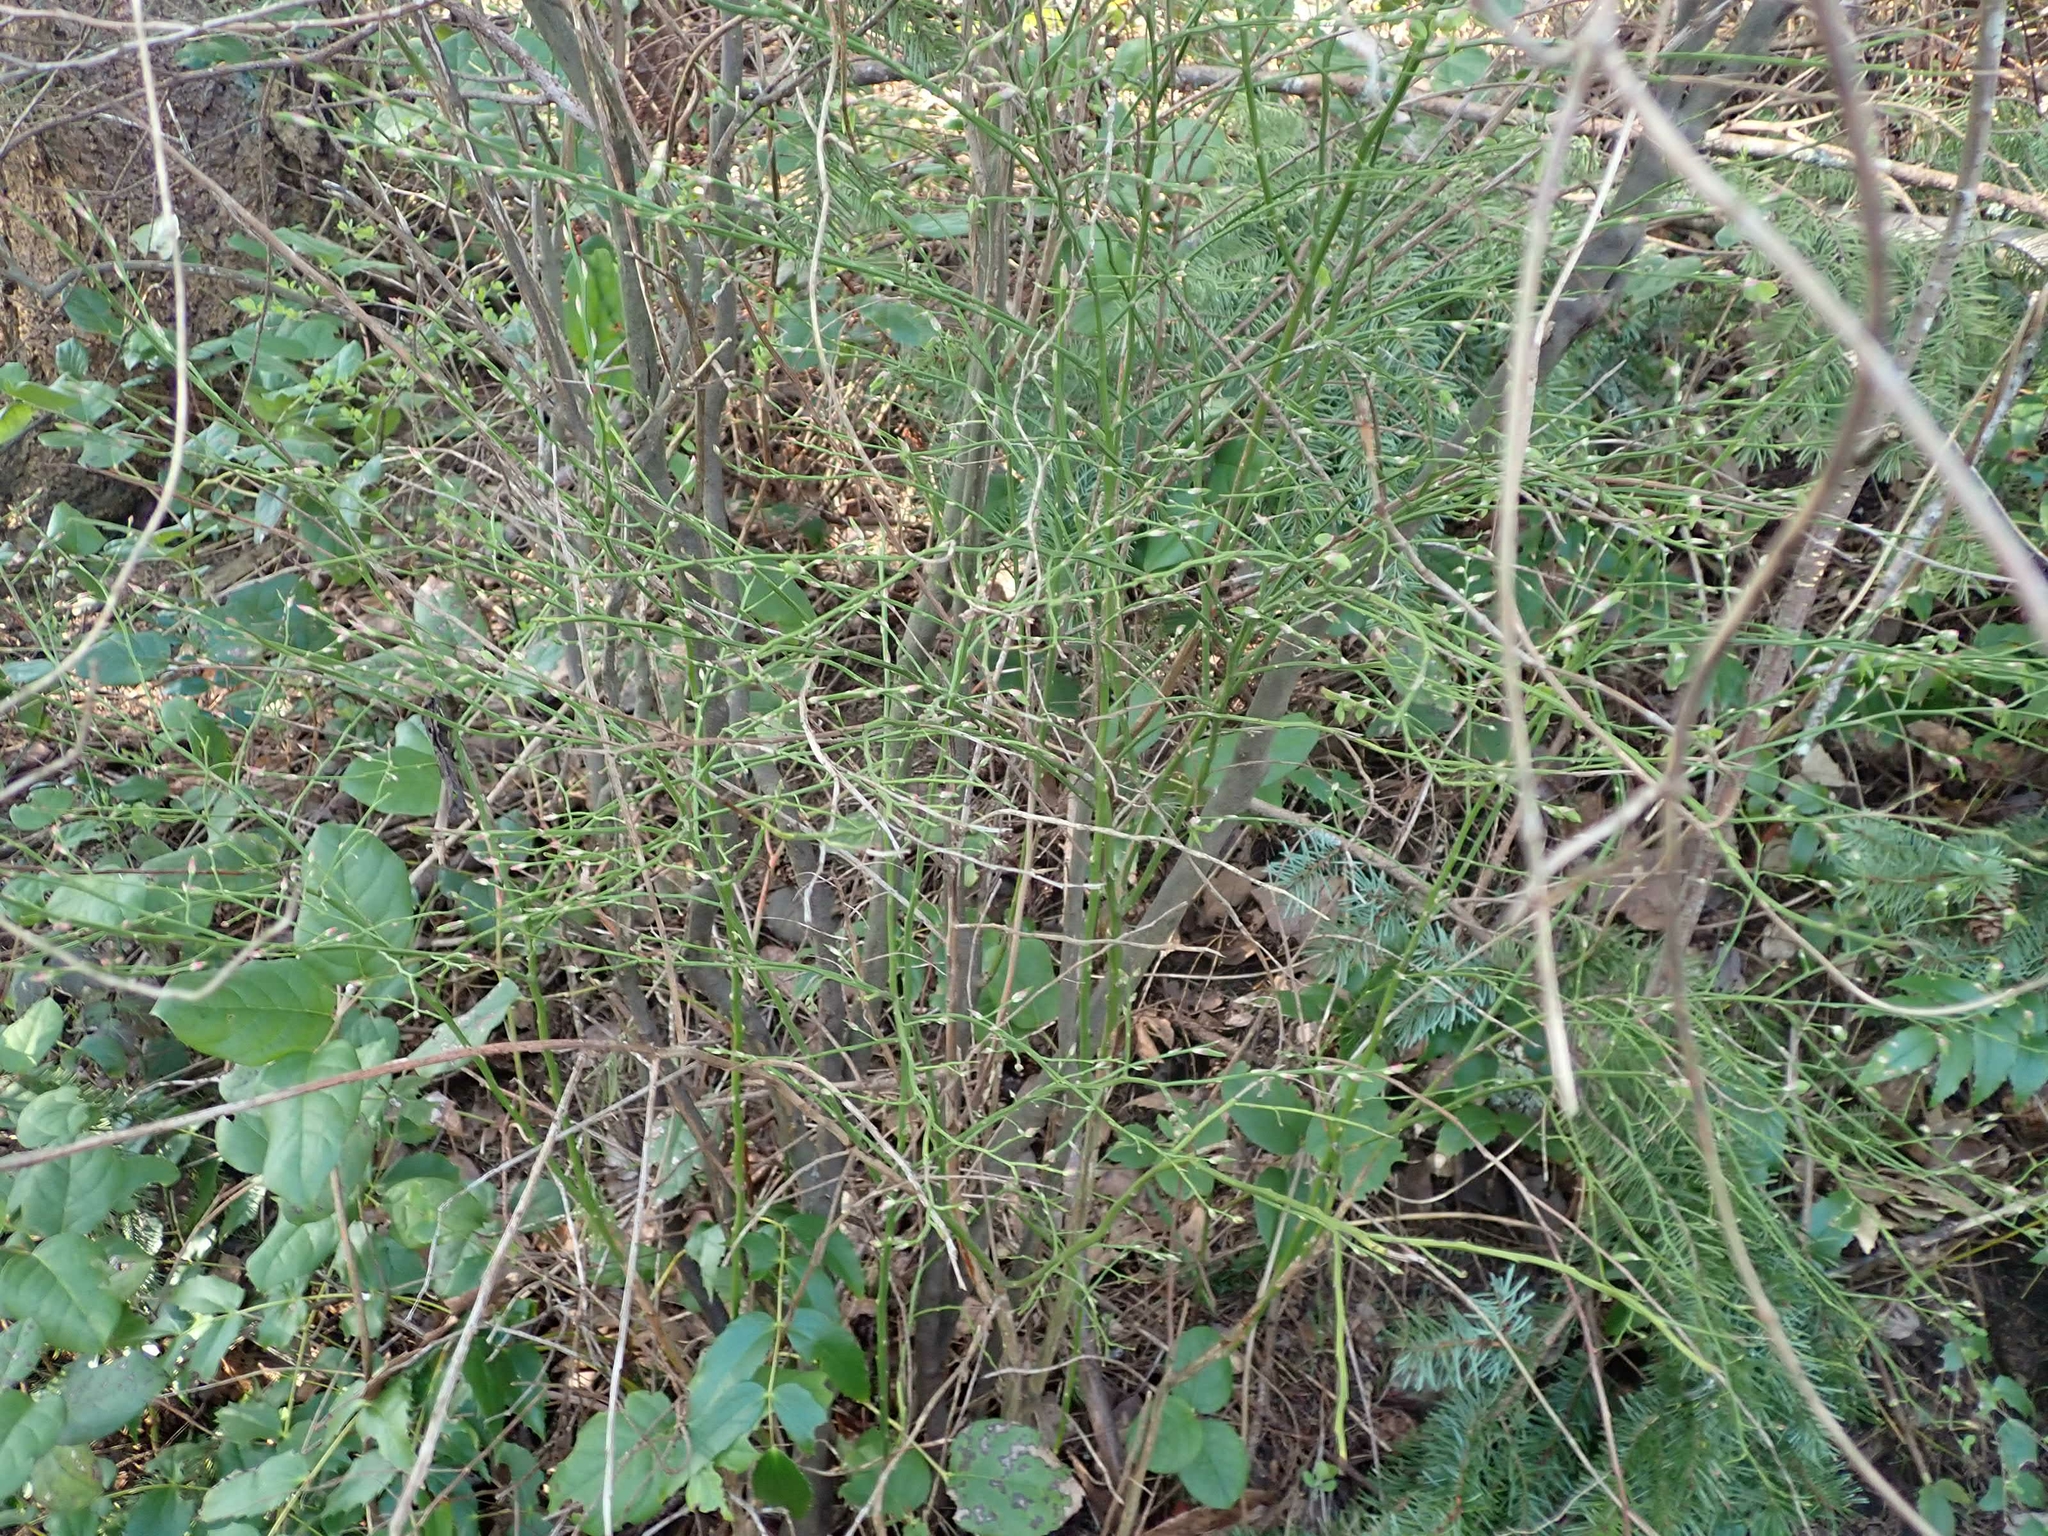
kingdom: Plantae
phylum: Tracheophyta
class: Magnoliopsida
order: Ericales
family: Ericaceae
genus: Vaccinium
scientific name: Vaccinium parvifolium
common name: Red-huckleberry
